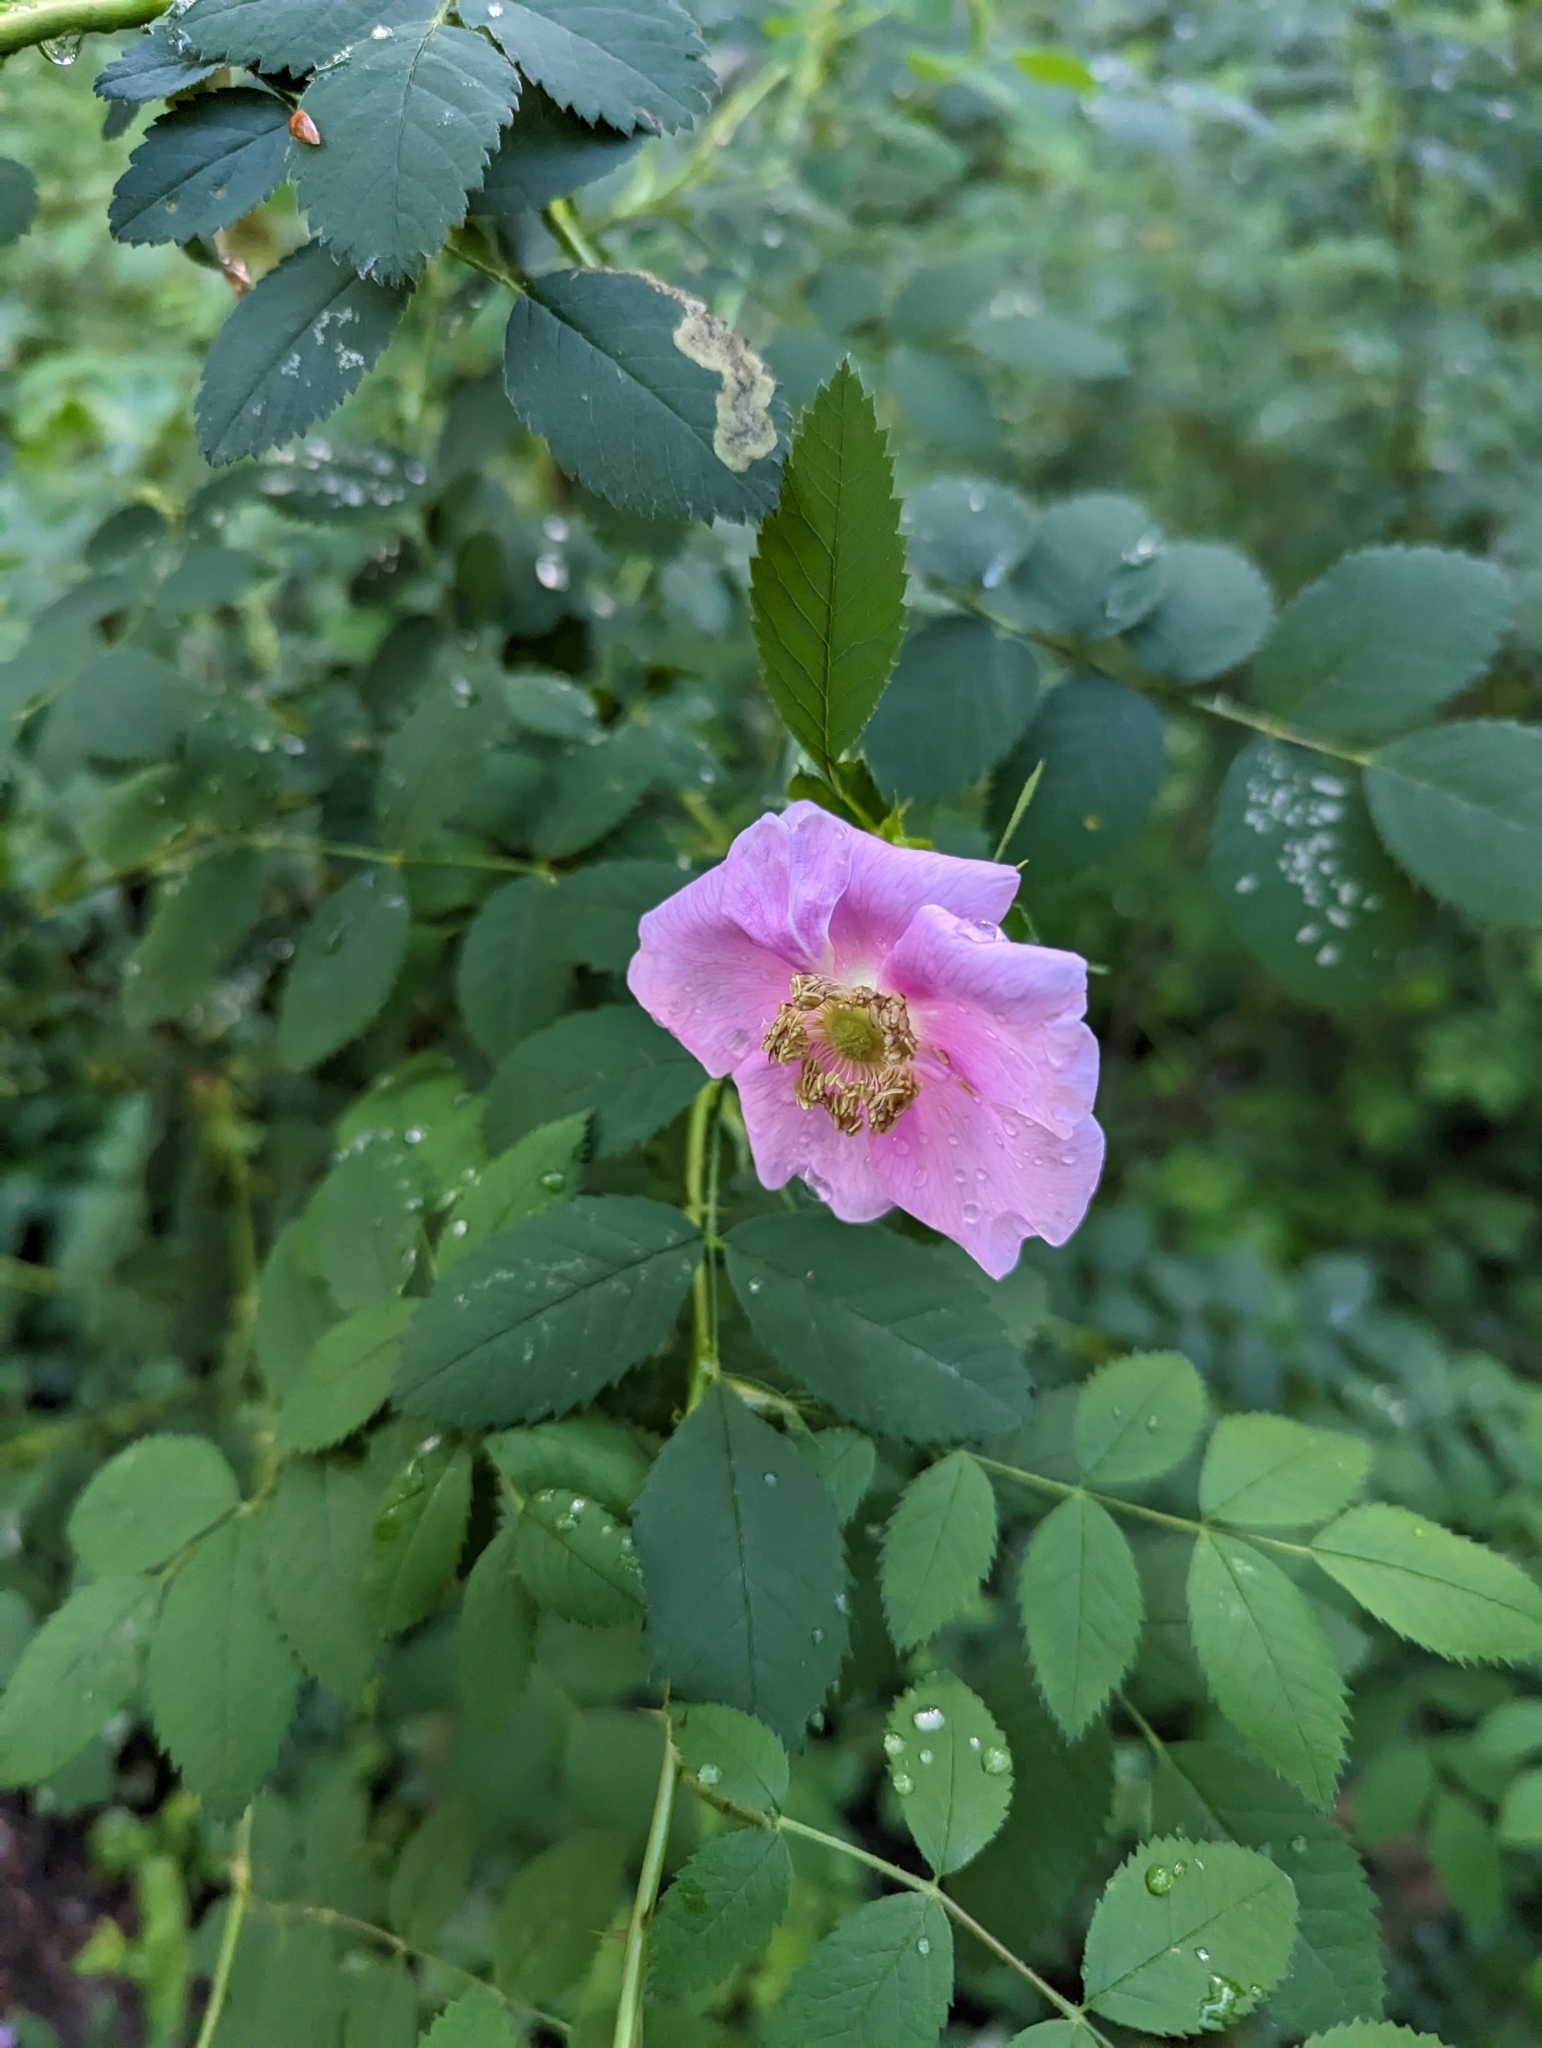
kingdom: Plantae
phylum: Tracheophyta
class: Magnoliopsida
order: Rosales
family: Rosaceae
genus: Rosa
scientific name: Rosa nutkana
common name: Nootka rose
